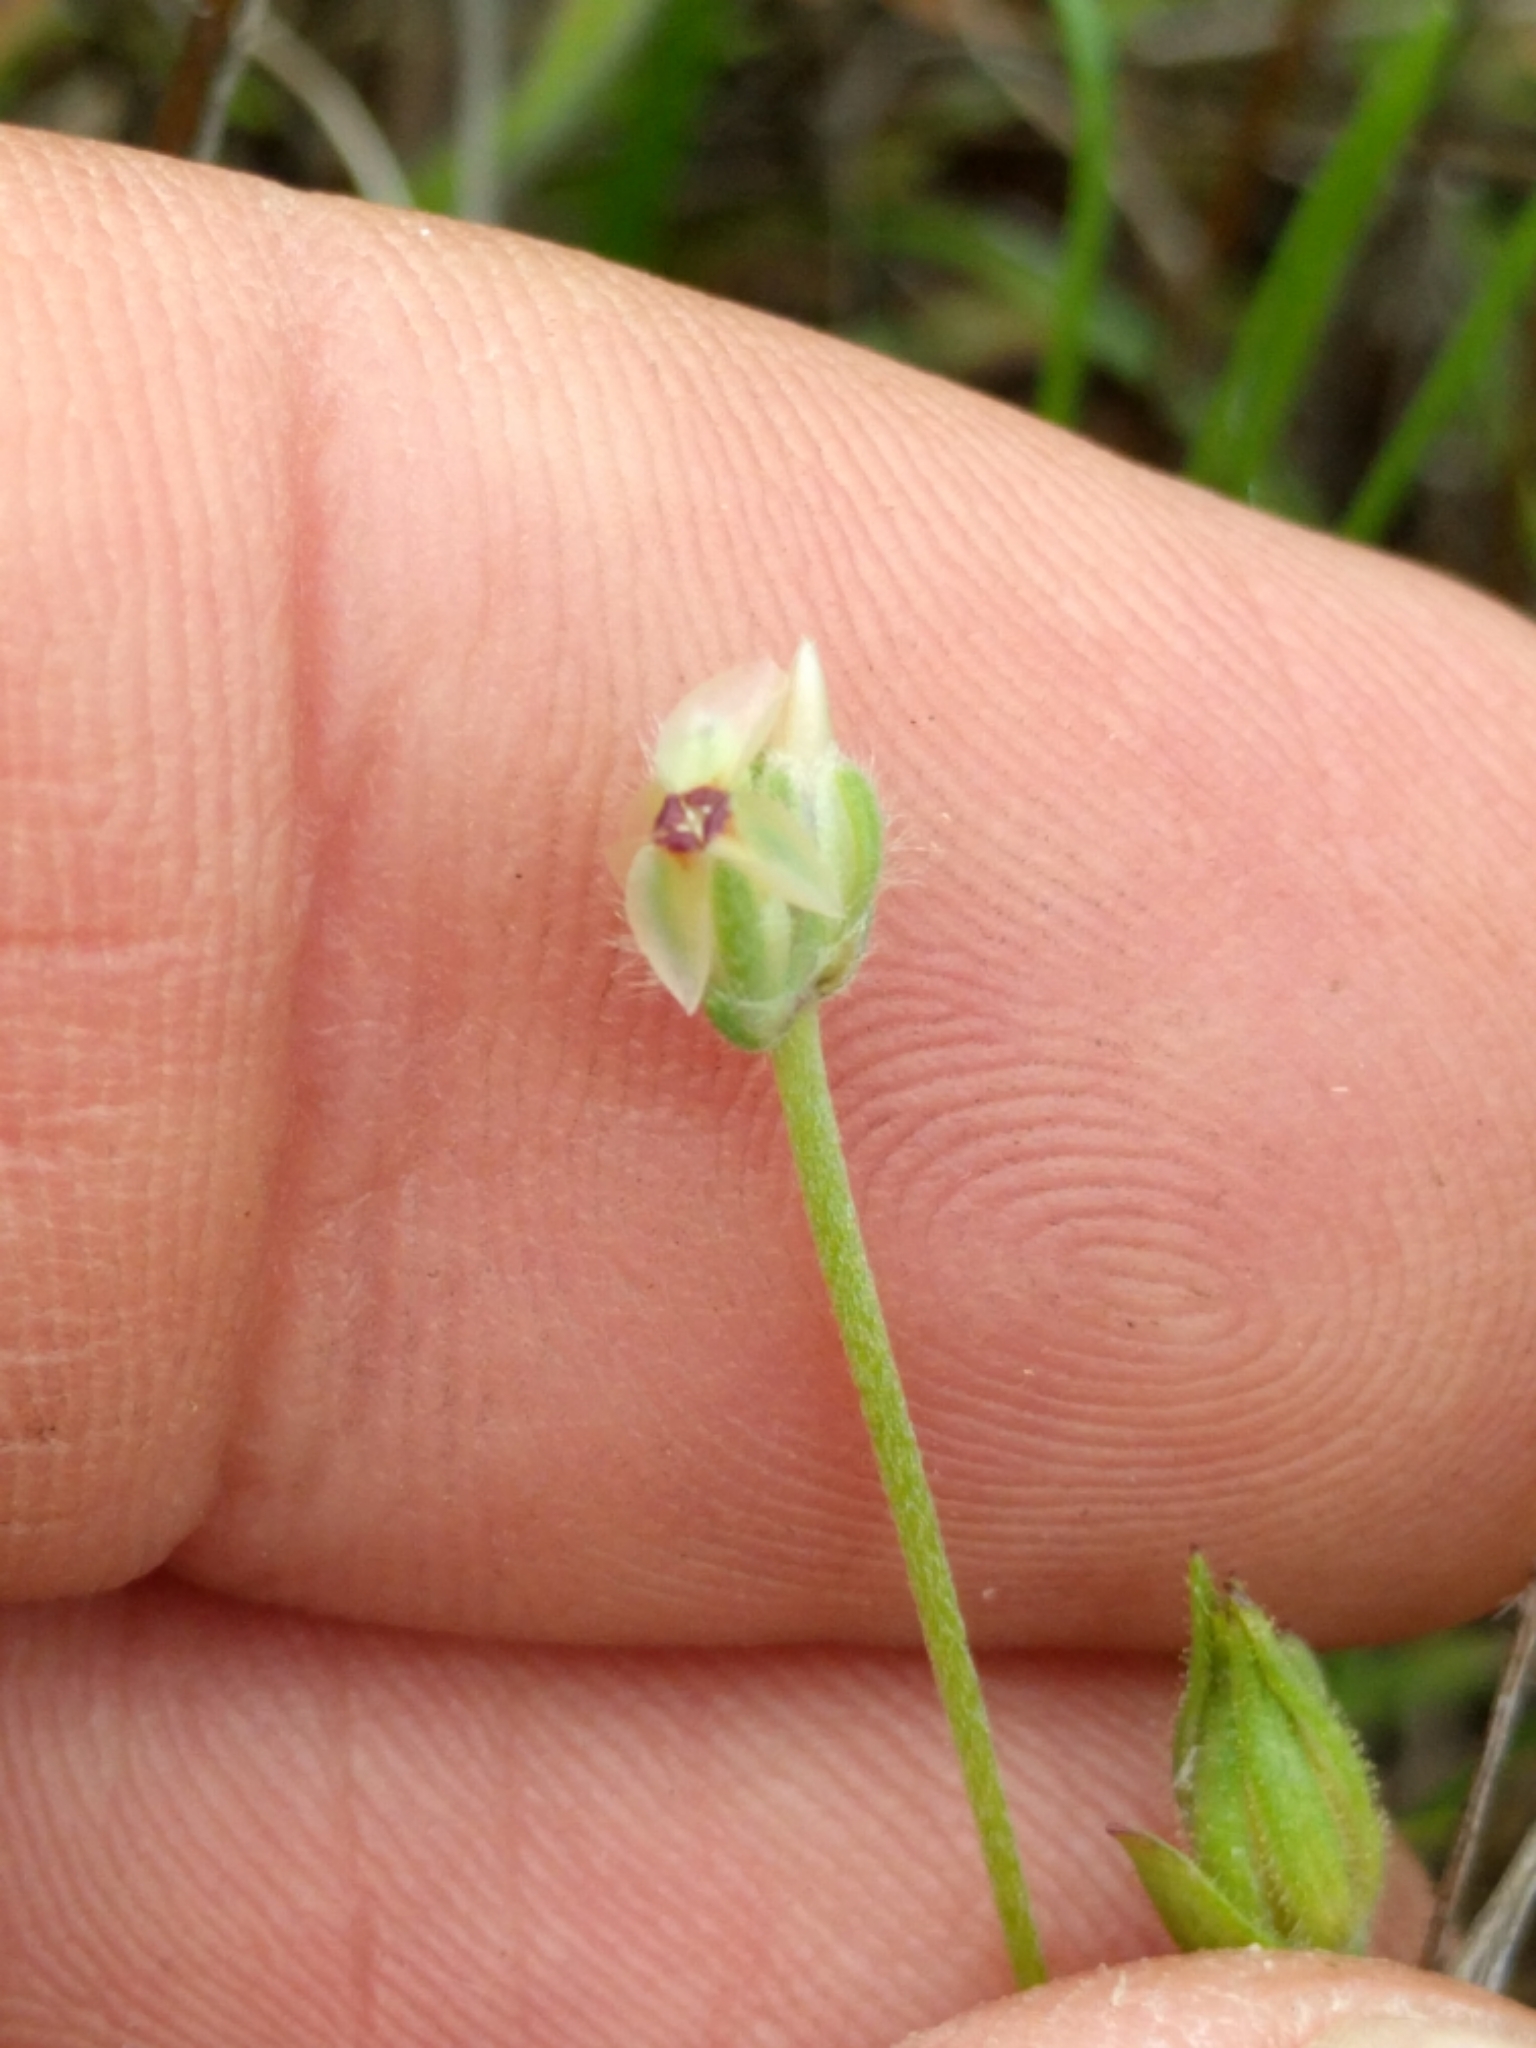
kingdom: Plantae
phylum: Tracheophyta
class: Magnoliopsida
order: Lamiales
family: Plantaginaceae
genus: Plantago
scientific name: Plantago erecta
